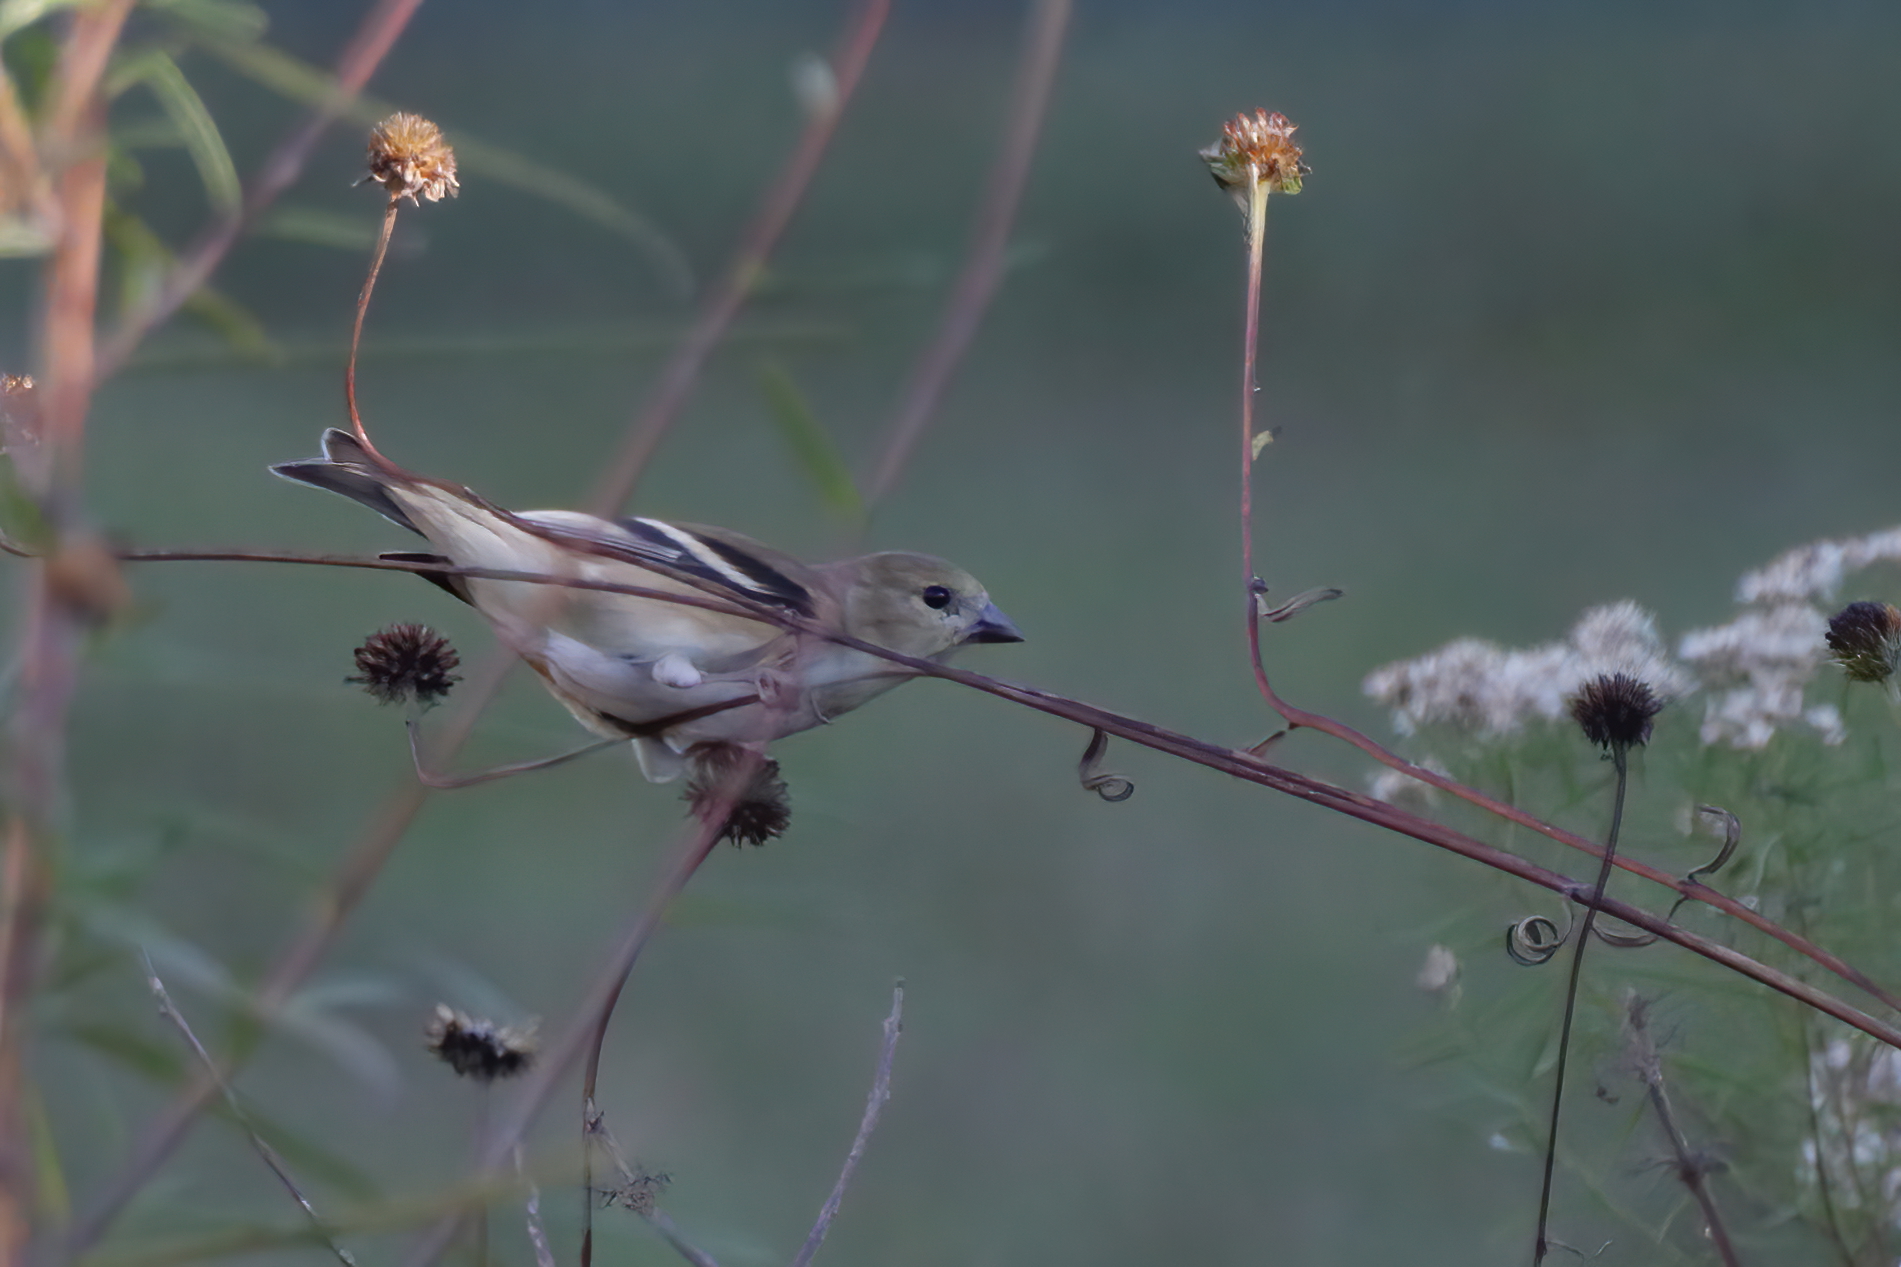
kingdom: Animalia
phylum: Chordata
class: Aves
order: Passeriformes
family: Fringillidae
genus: Spinus
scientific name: Spinus tristis
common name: American goldfinch
